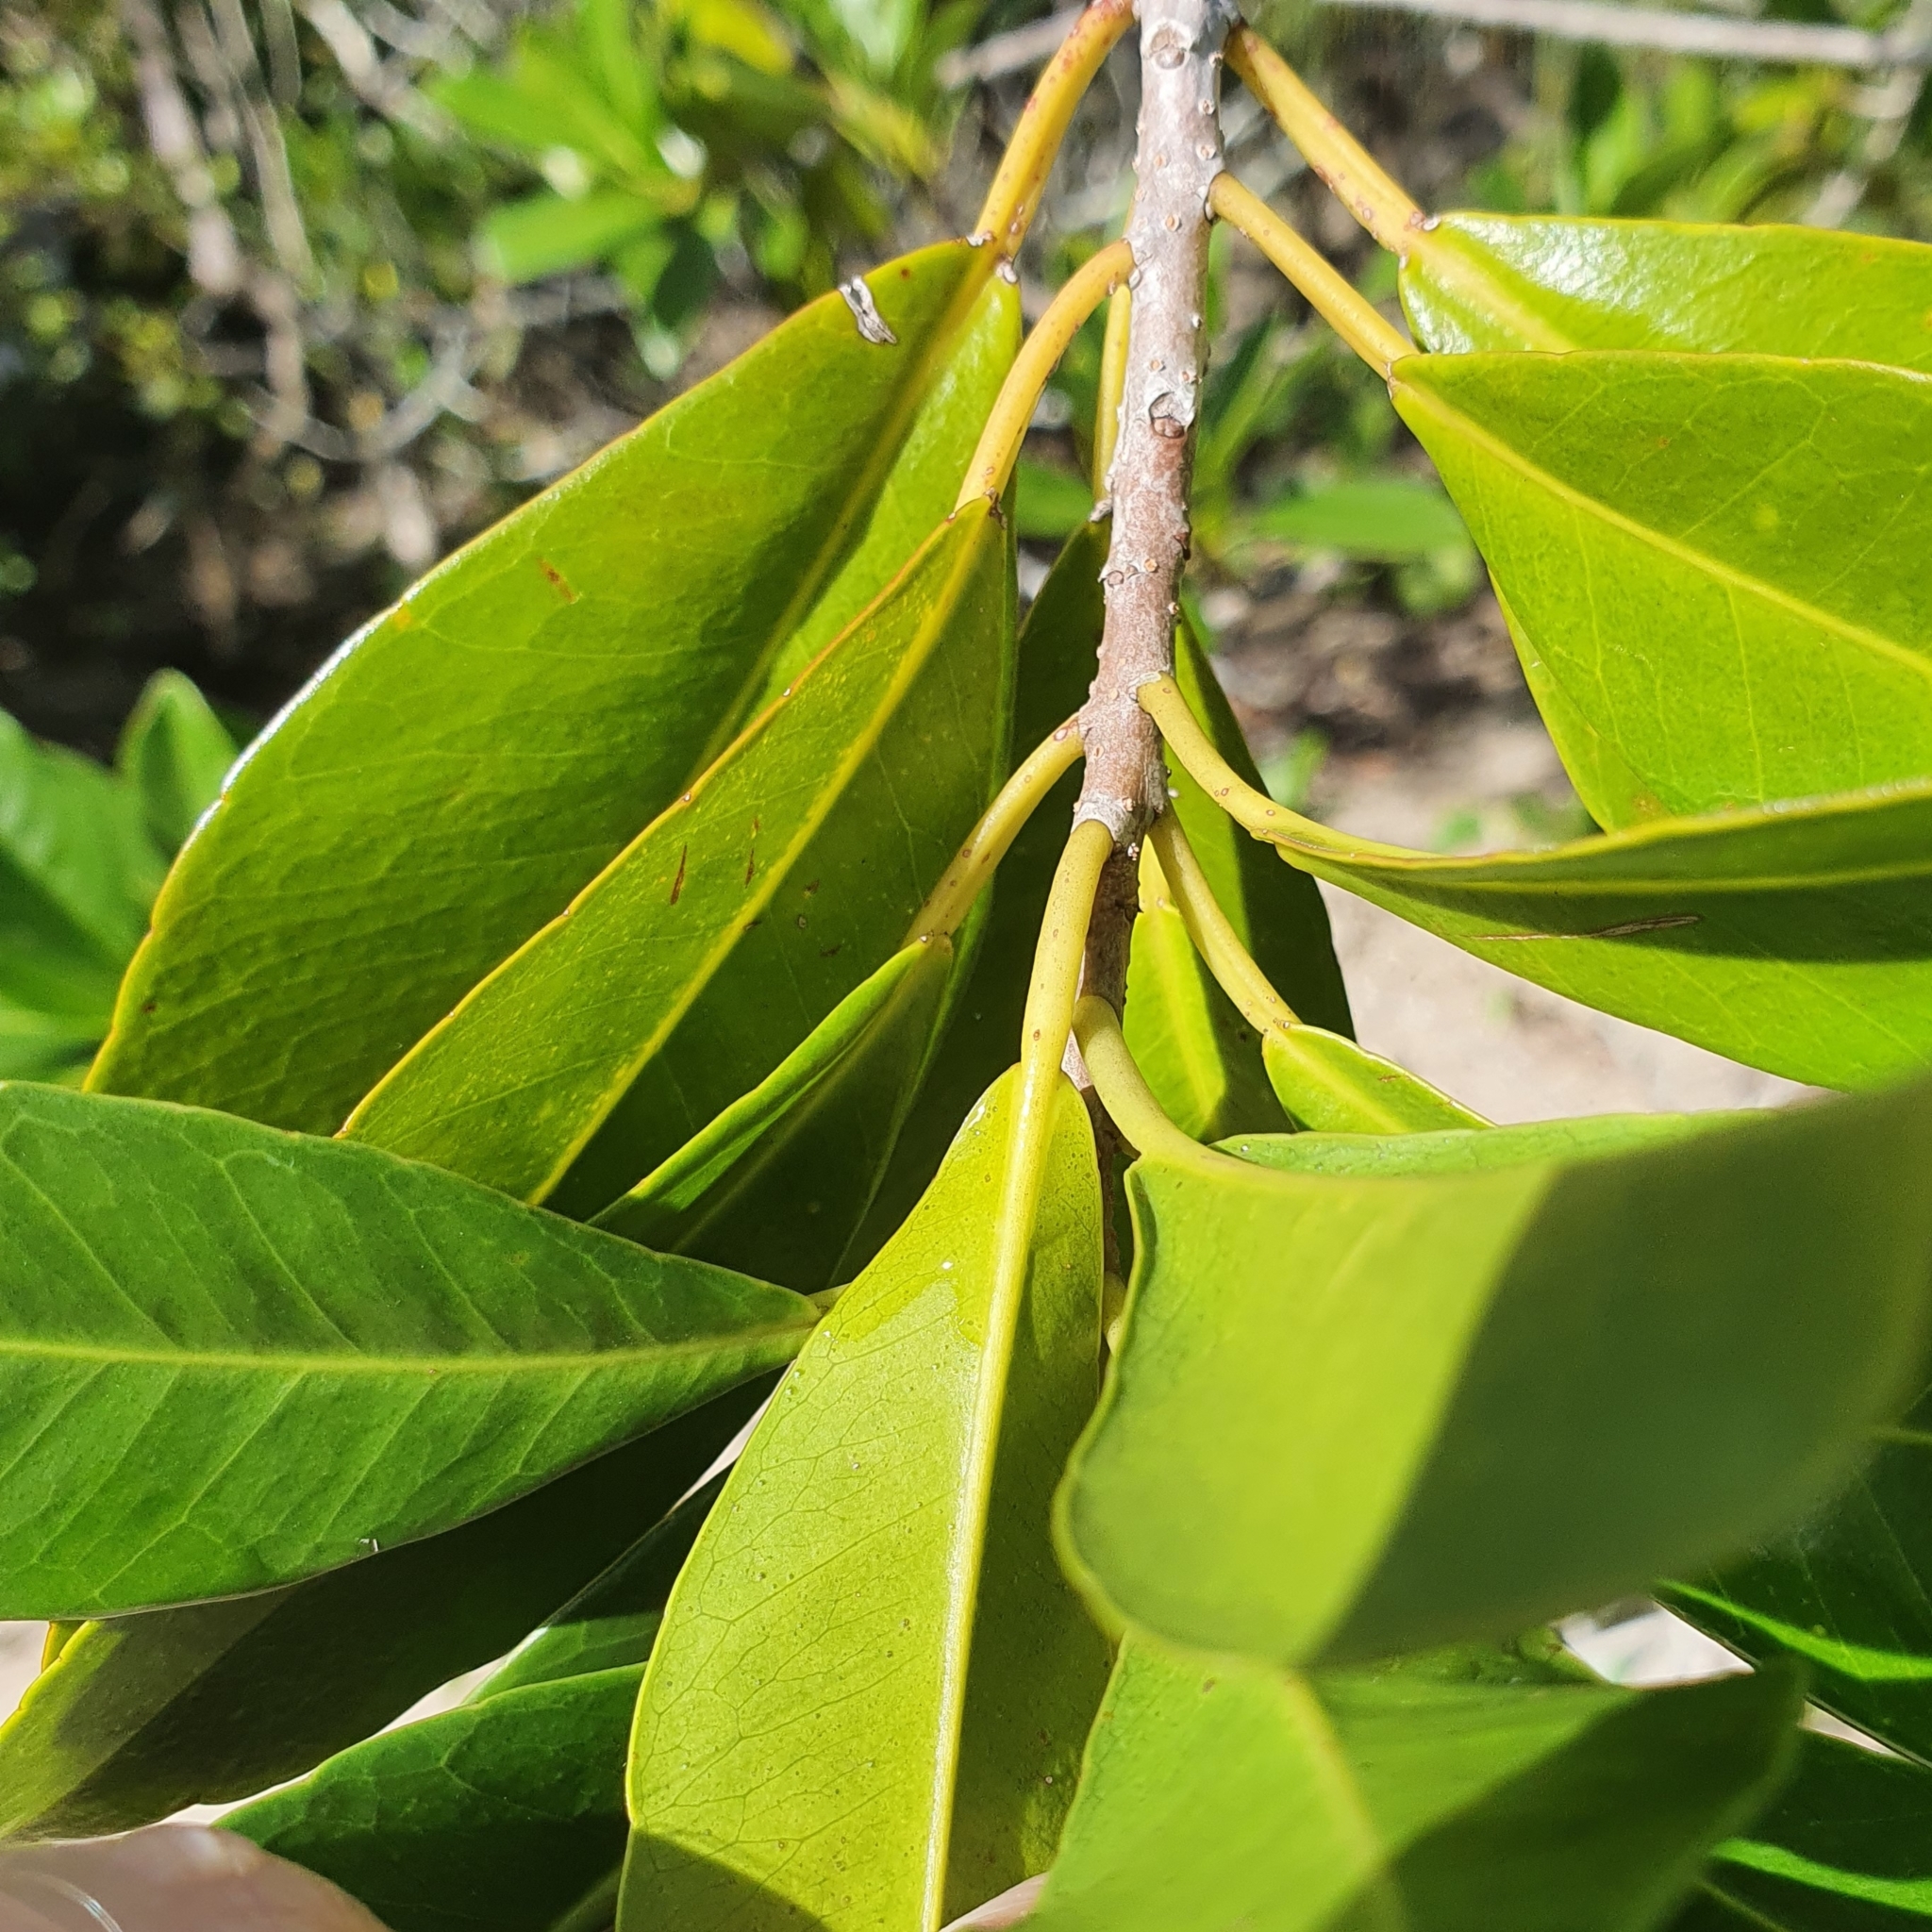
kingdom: Plantae
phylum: Tracheophyta
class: Magnoliopsida
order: Malpighiales
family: Euphorbiaceae
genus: Excoecaria
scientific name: Excoecaria agallocha
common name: River poisontree
